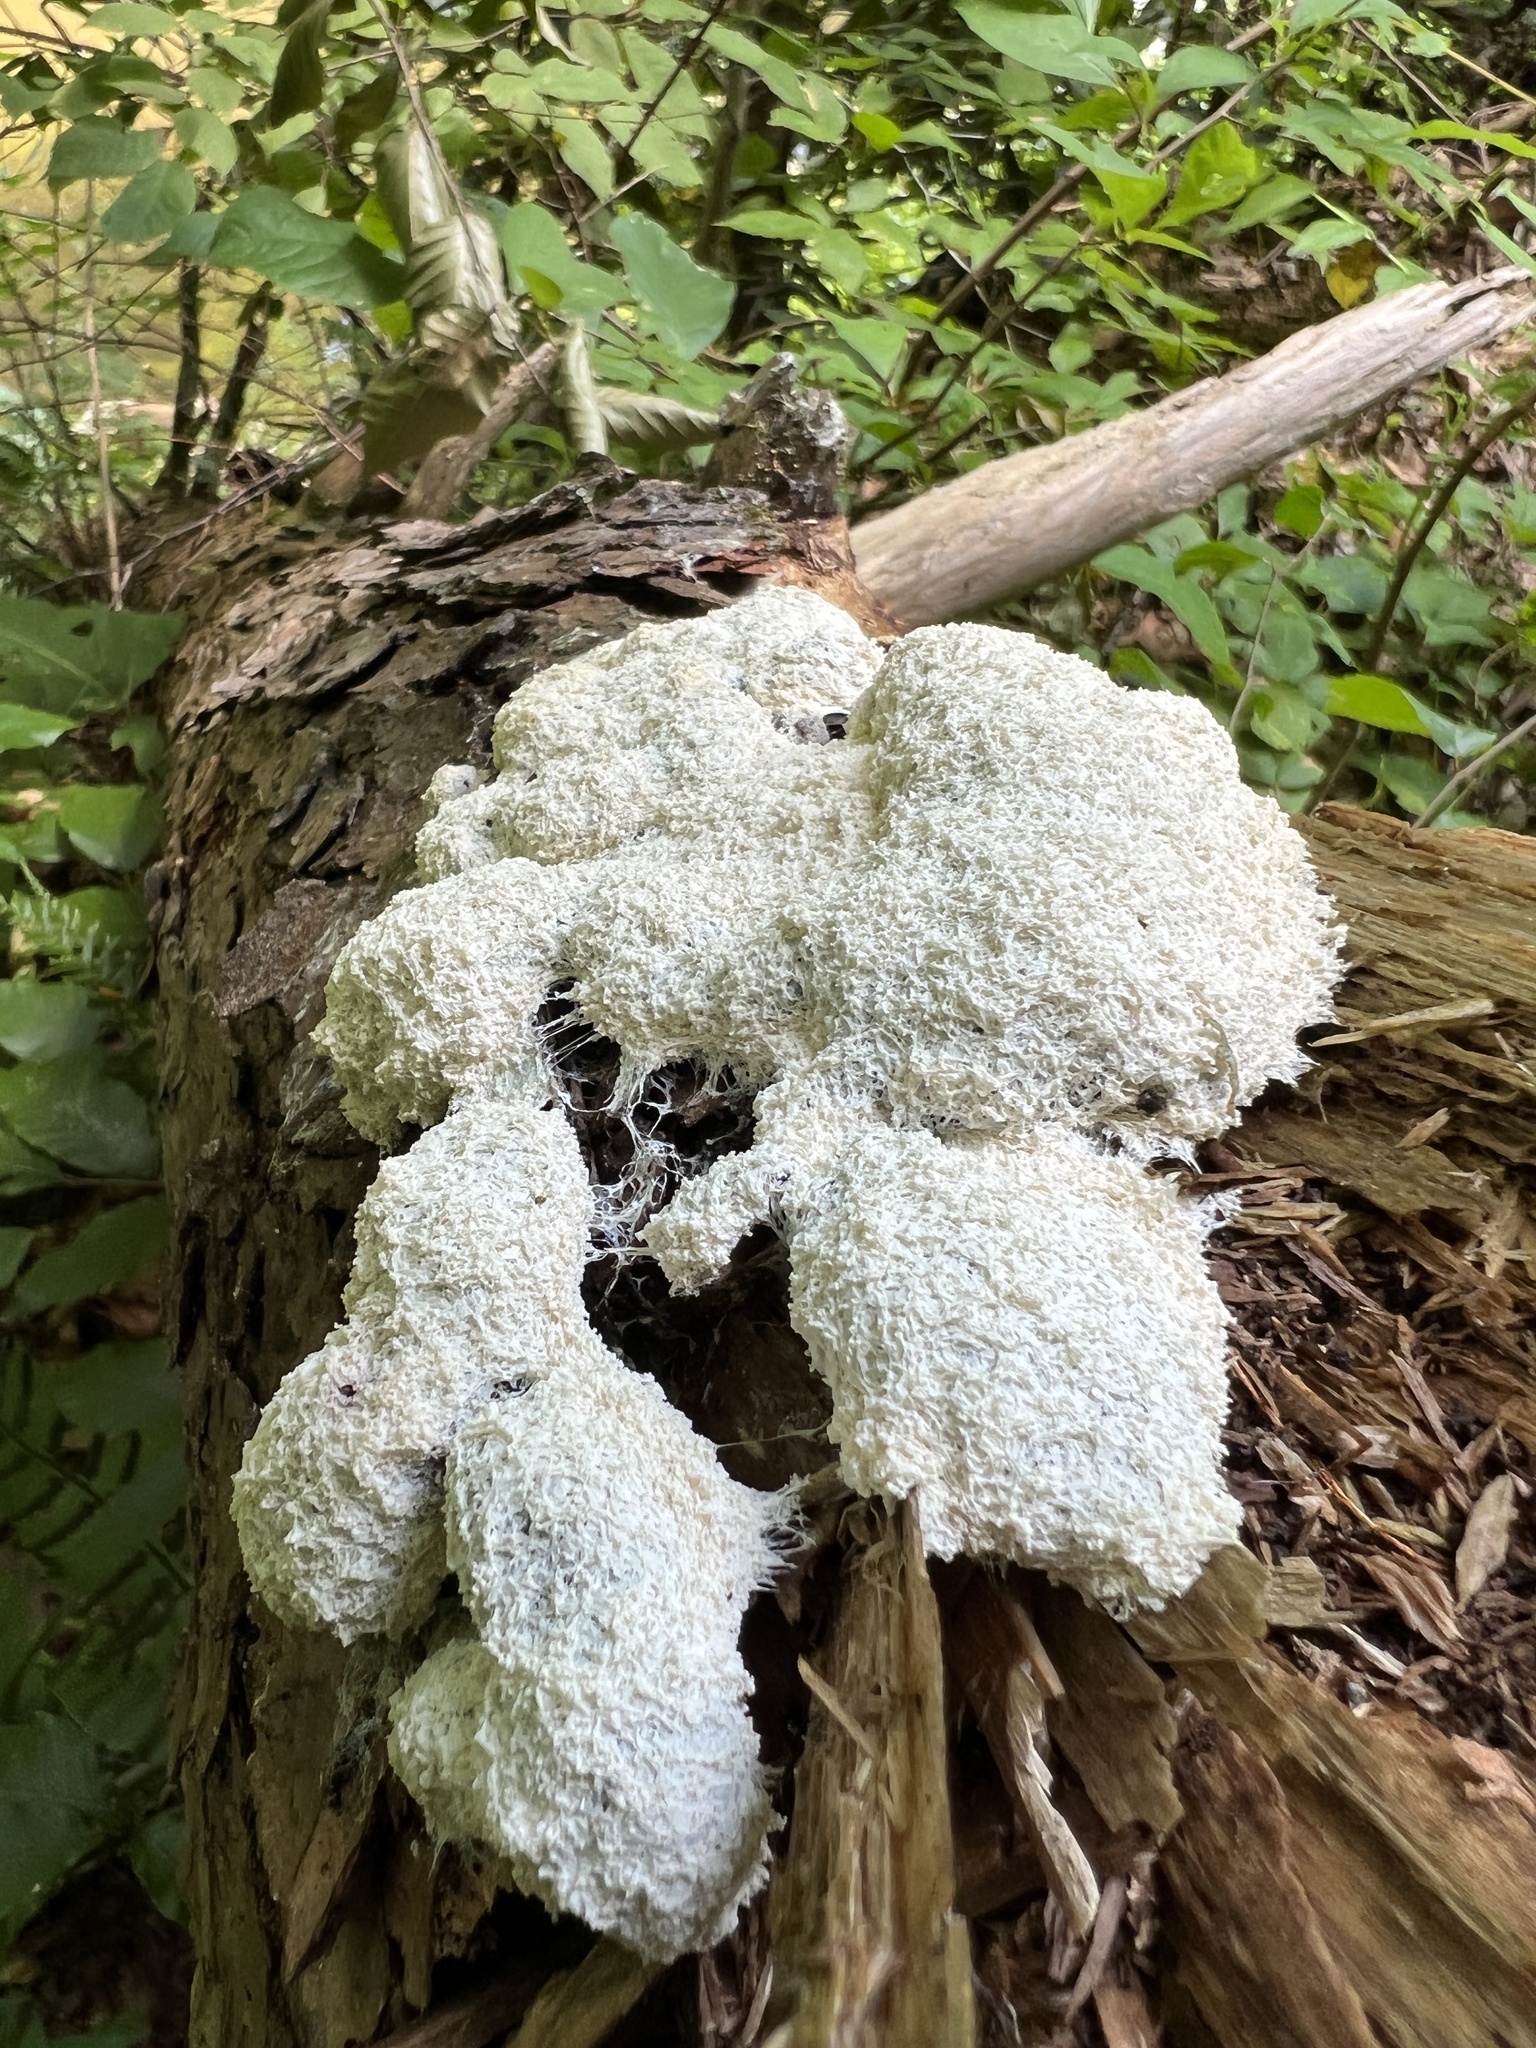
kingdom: Protozoa
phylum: Mycetozoa
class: Myxomycetes
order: Physarales
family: Physaraceae
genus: Fuligo
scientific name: Fuligo septica
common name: Dog vomit slime mold
